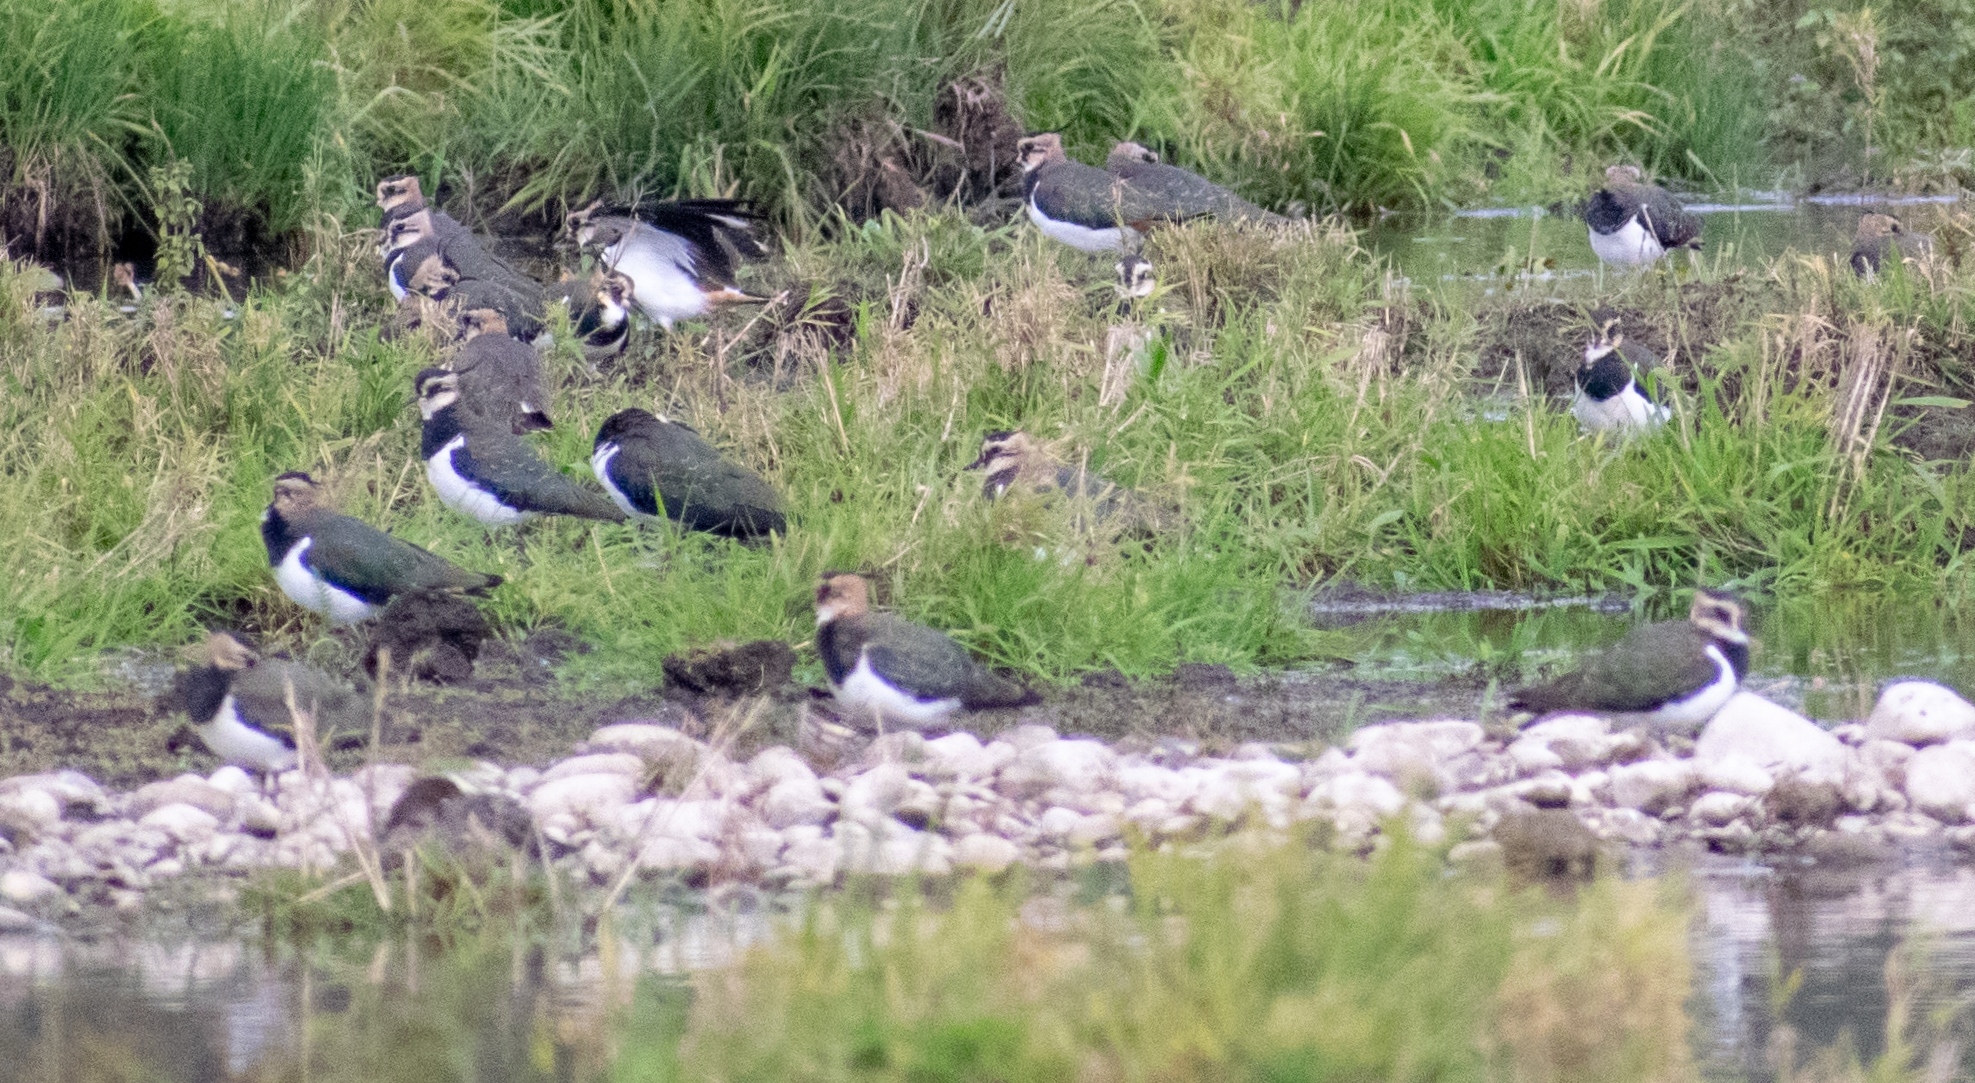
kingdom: Animalia
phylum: Chordata
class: Aves
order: Charadriiformes
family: Charadriidae
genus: Vanellus
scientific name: Vanellus vanellus
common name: Northern lapwing
